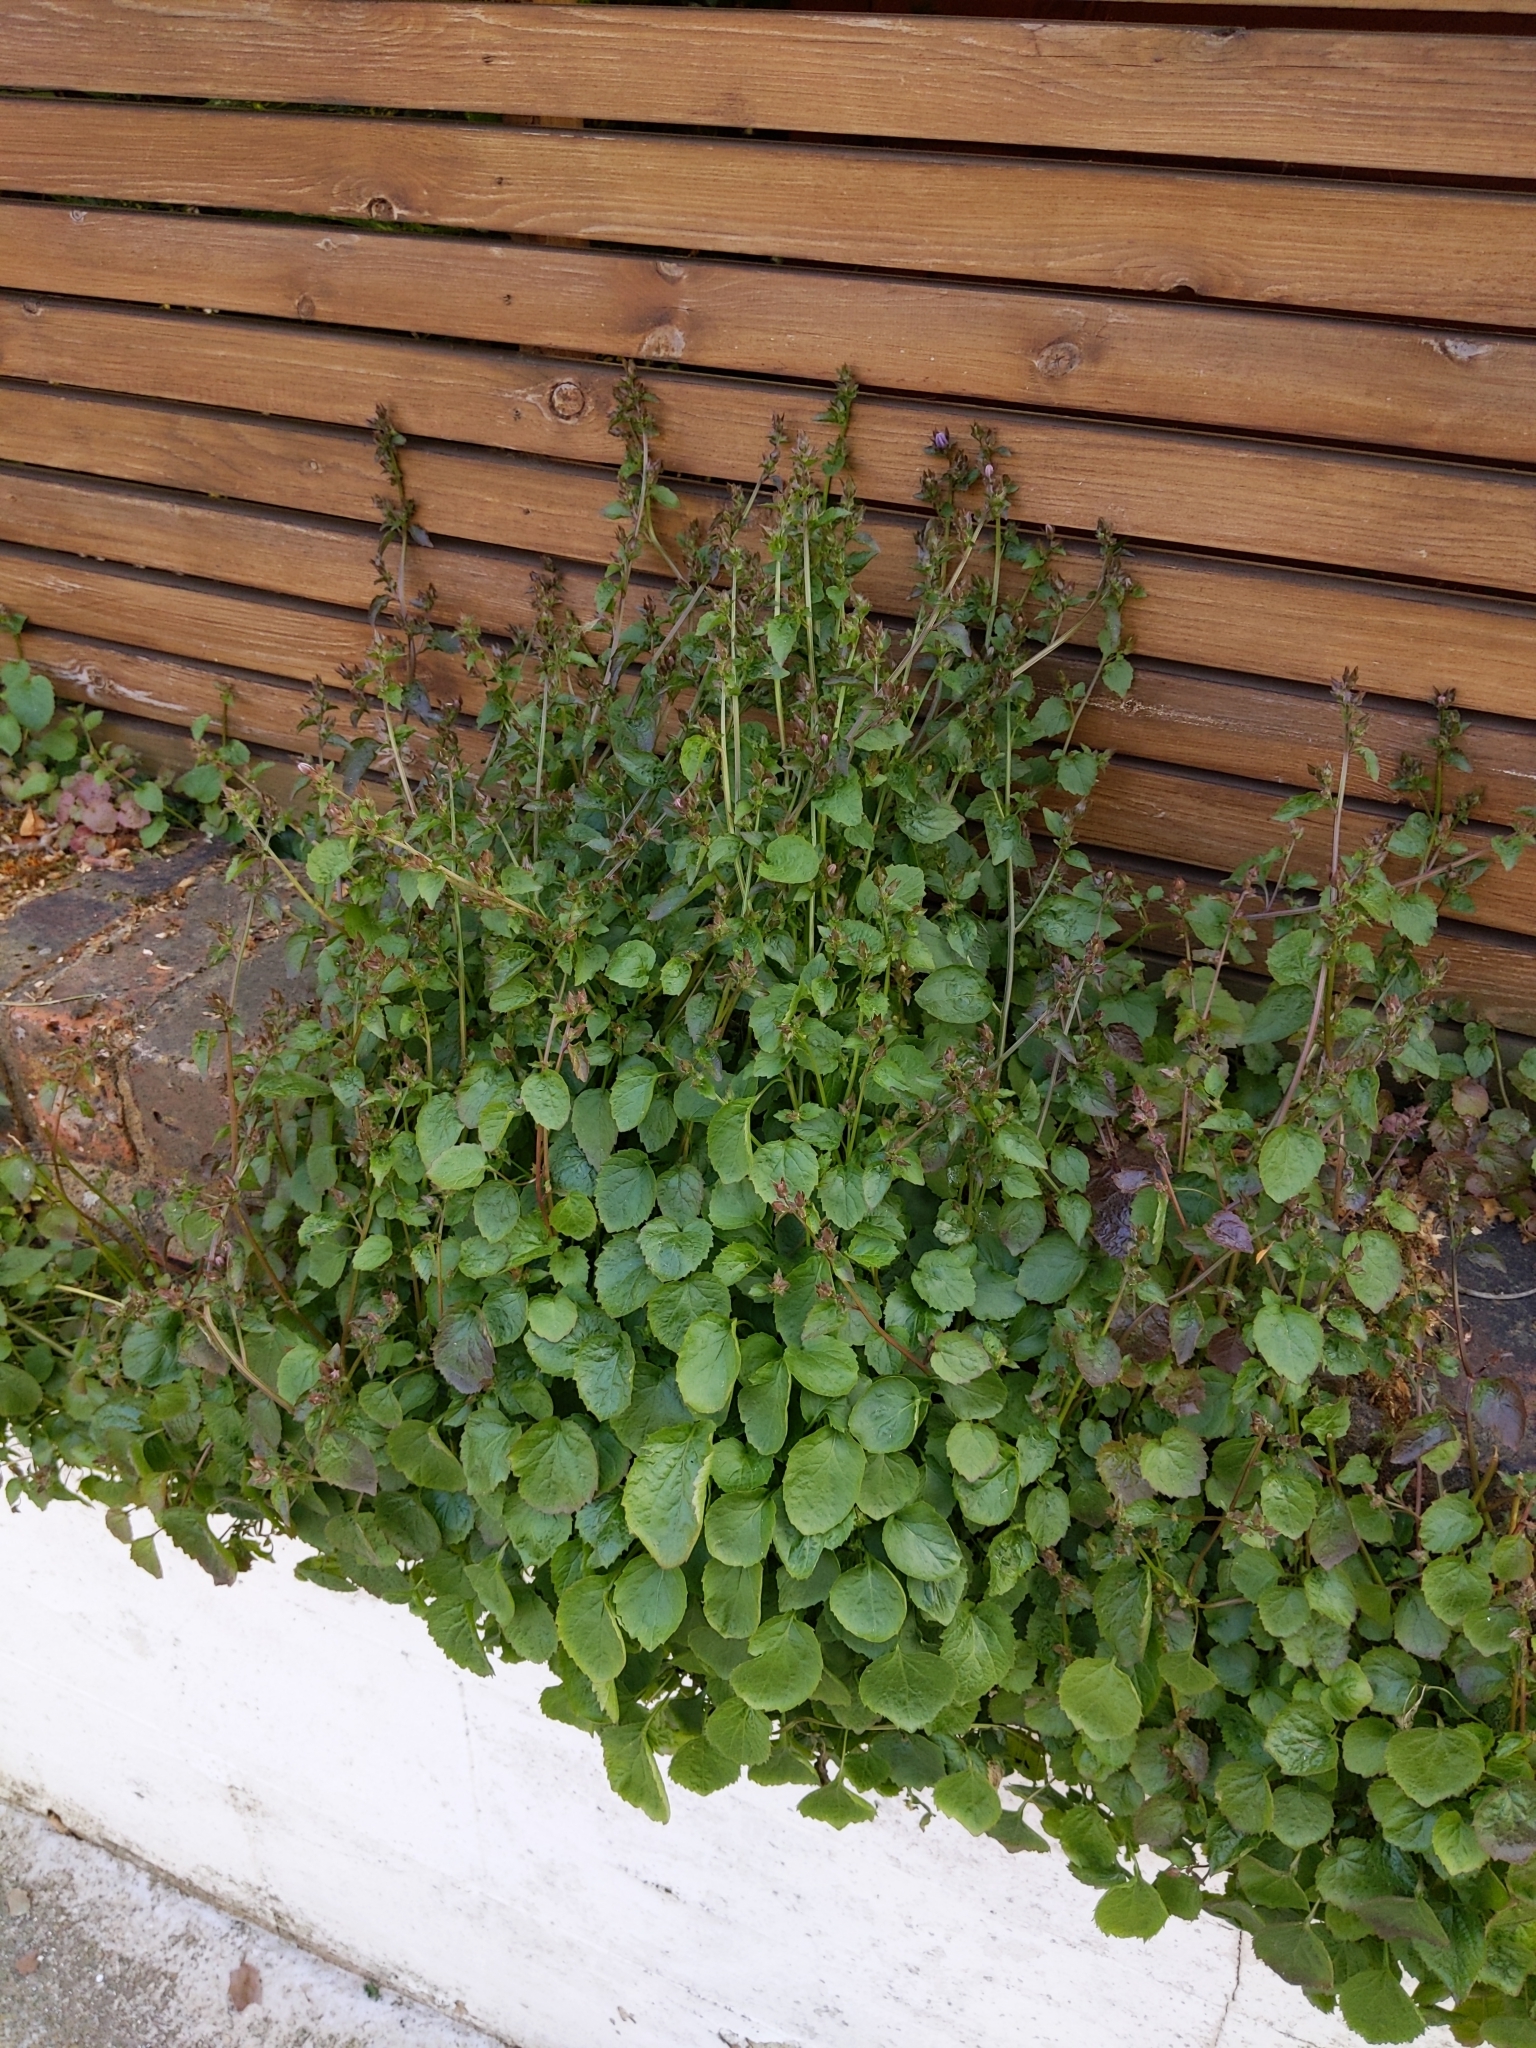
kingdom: Plantae
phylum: Tracheophyta
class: Magnoliopsida
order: Asterales
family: Campanulaceae
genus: Campanula
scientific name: Campanula poscharskyana
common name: Trailing bellflower
